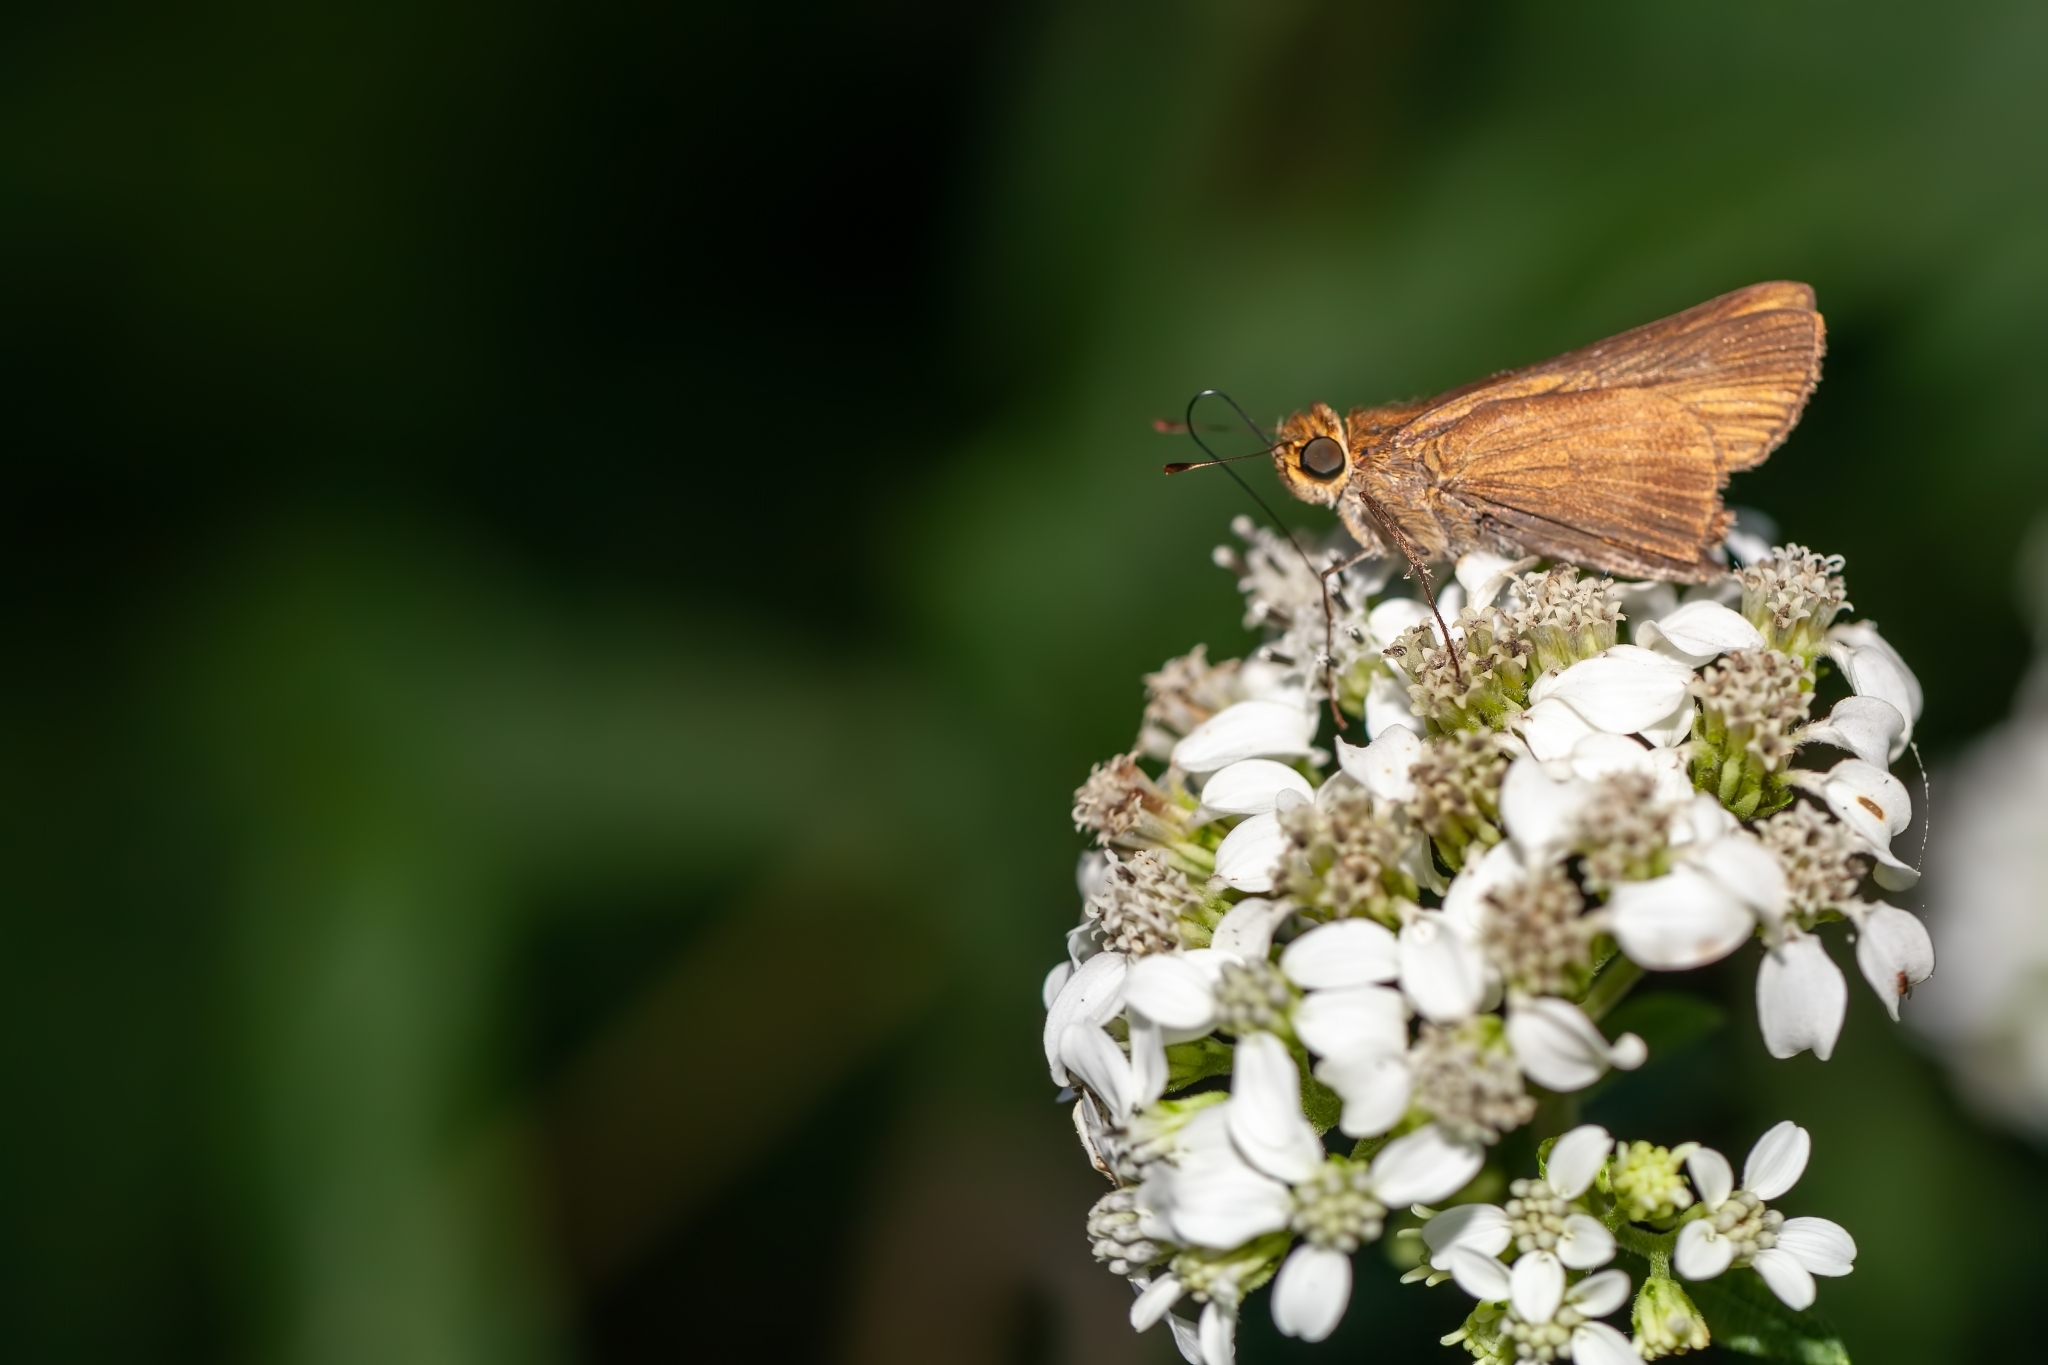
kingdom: Animalia
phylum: Arthropoda
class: Insecta
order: Lepidoptera
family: Hesperiidae
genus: Panoquina
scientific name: Panoquina ocola
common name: Ocola skipper
